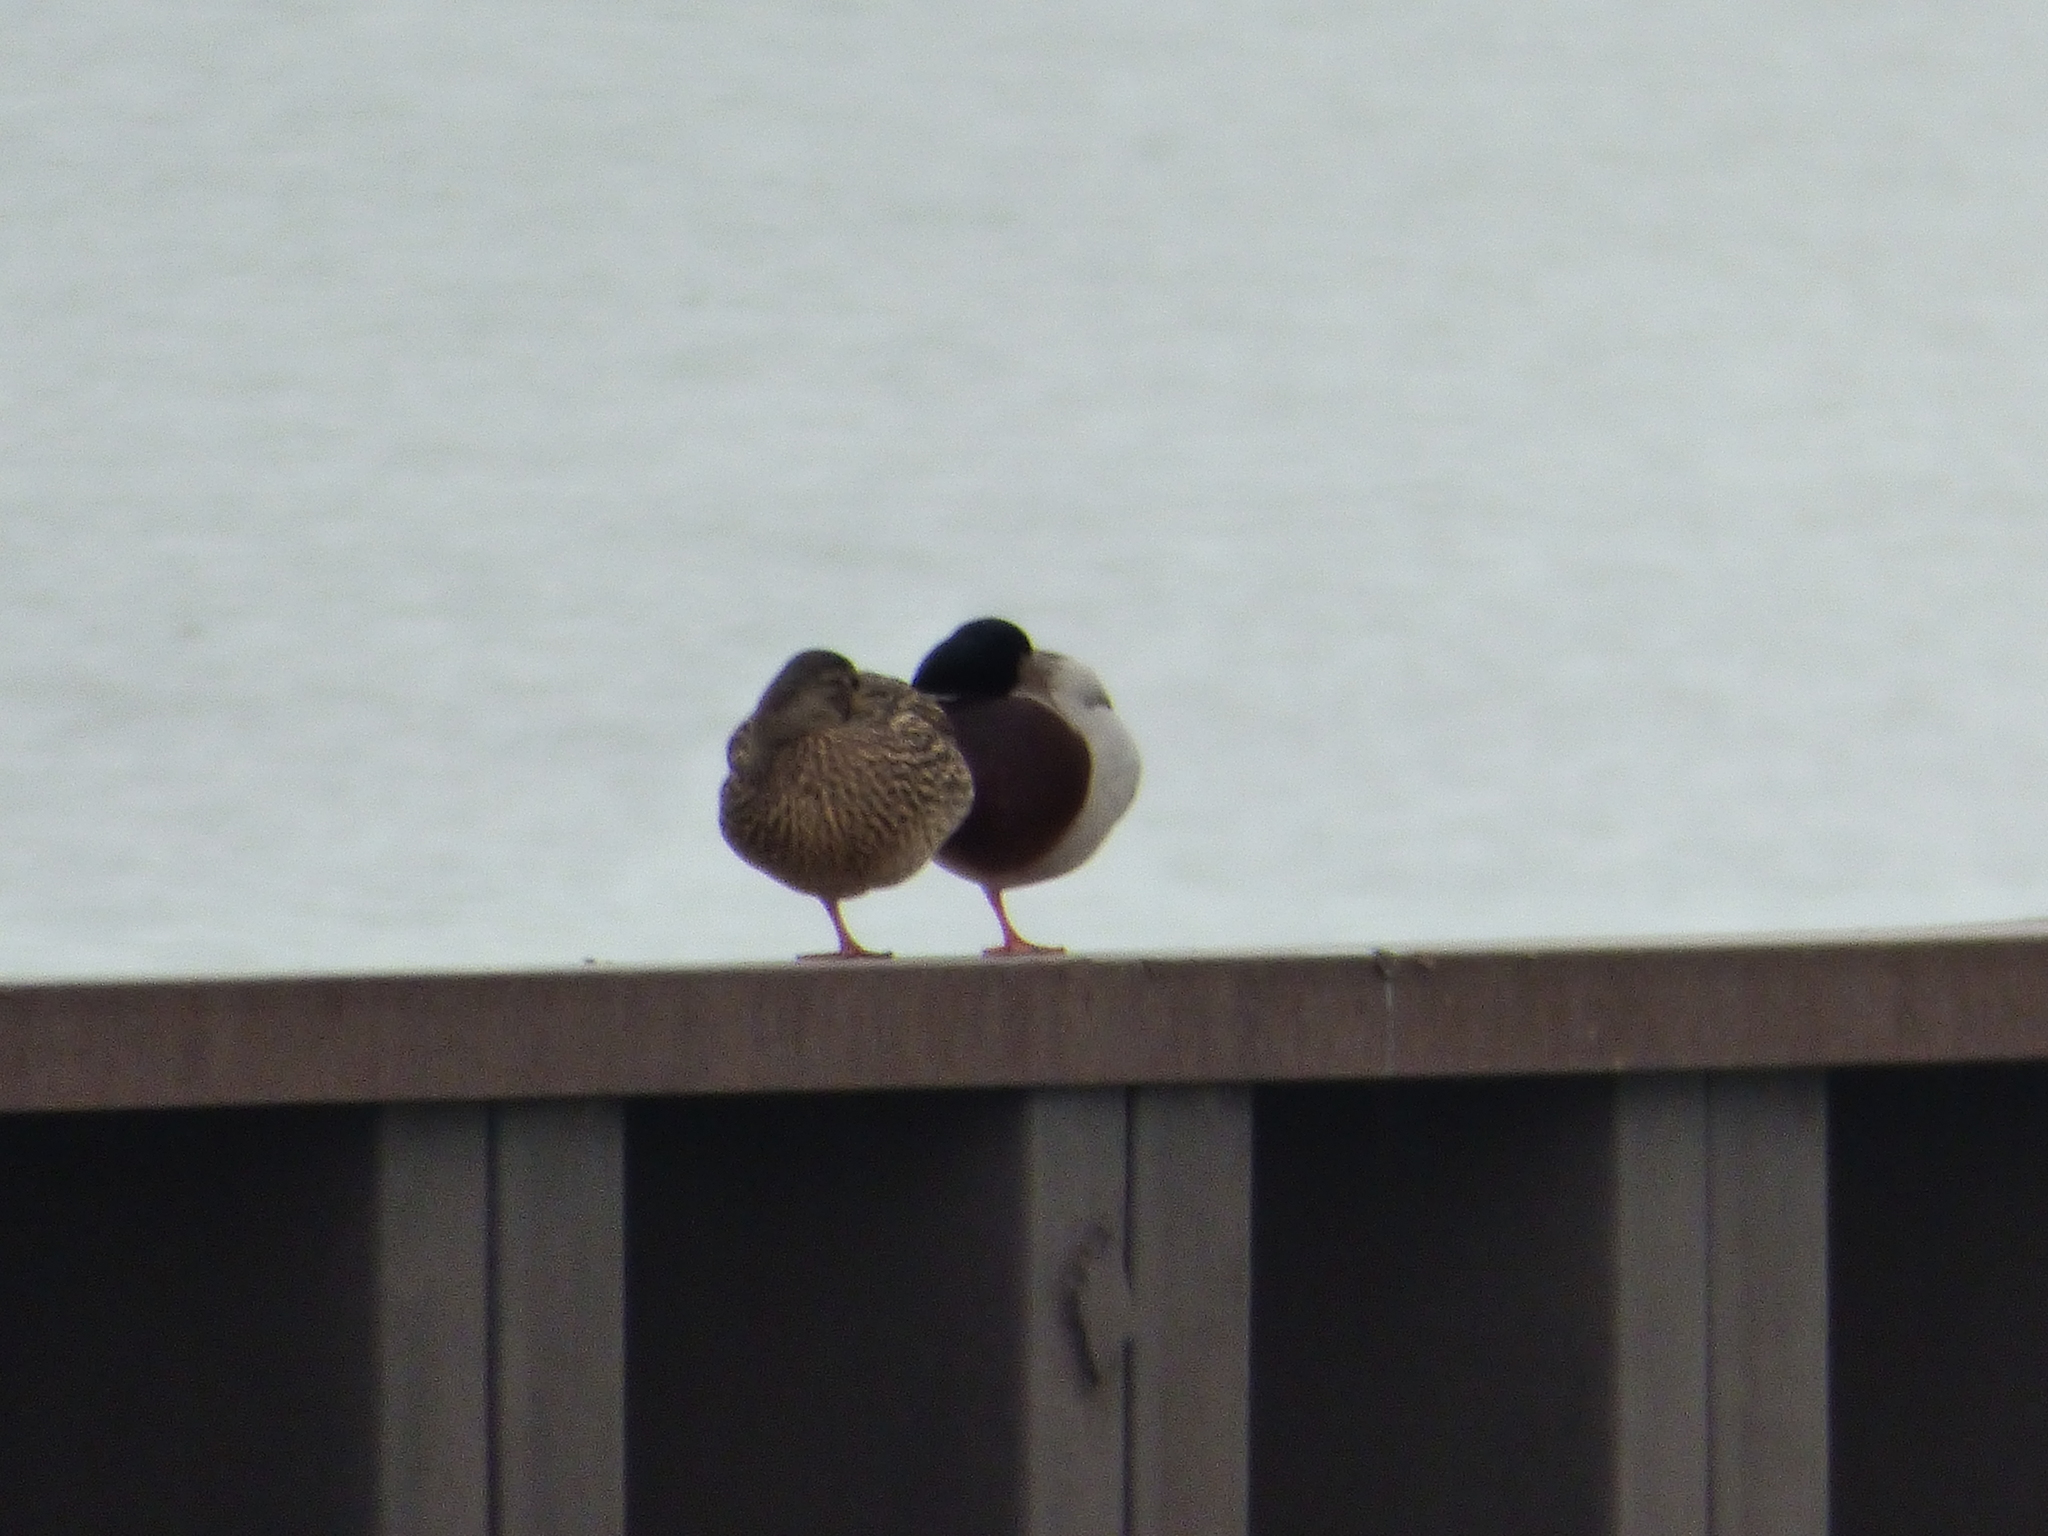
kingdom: Animalia
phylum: Chordata
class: Aves
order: Anseriformes
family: Anatidae
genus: Anas
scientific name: Anas platyrhynchos
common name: Mallard
